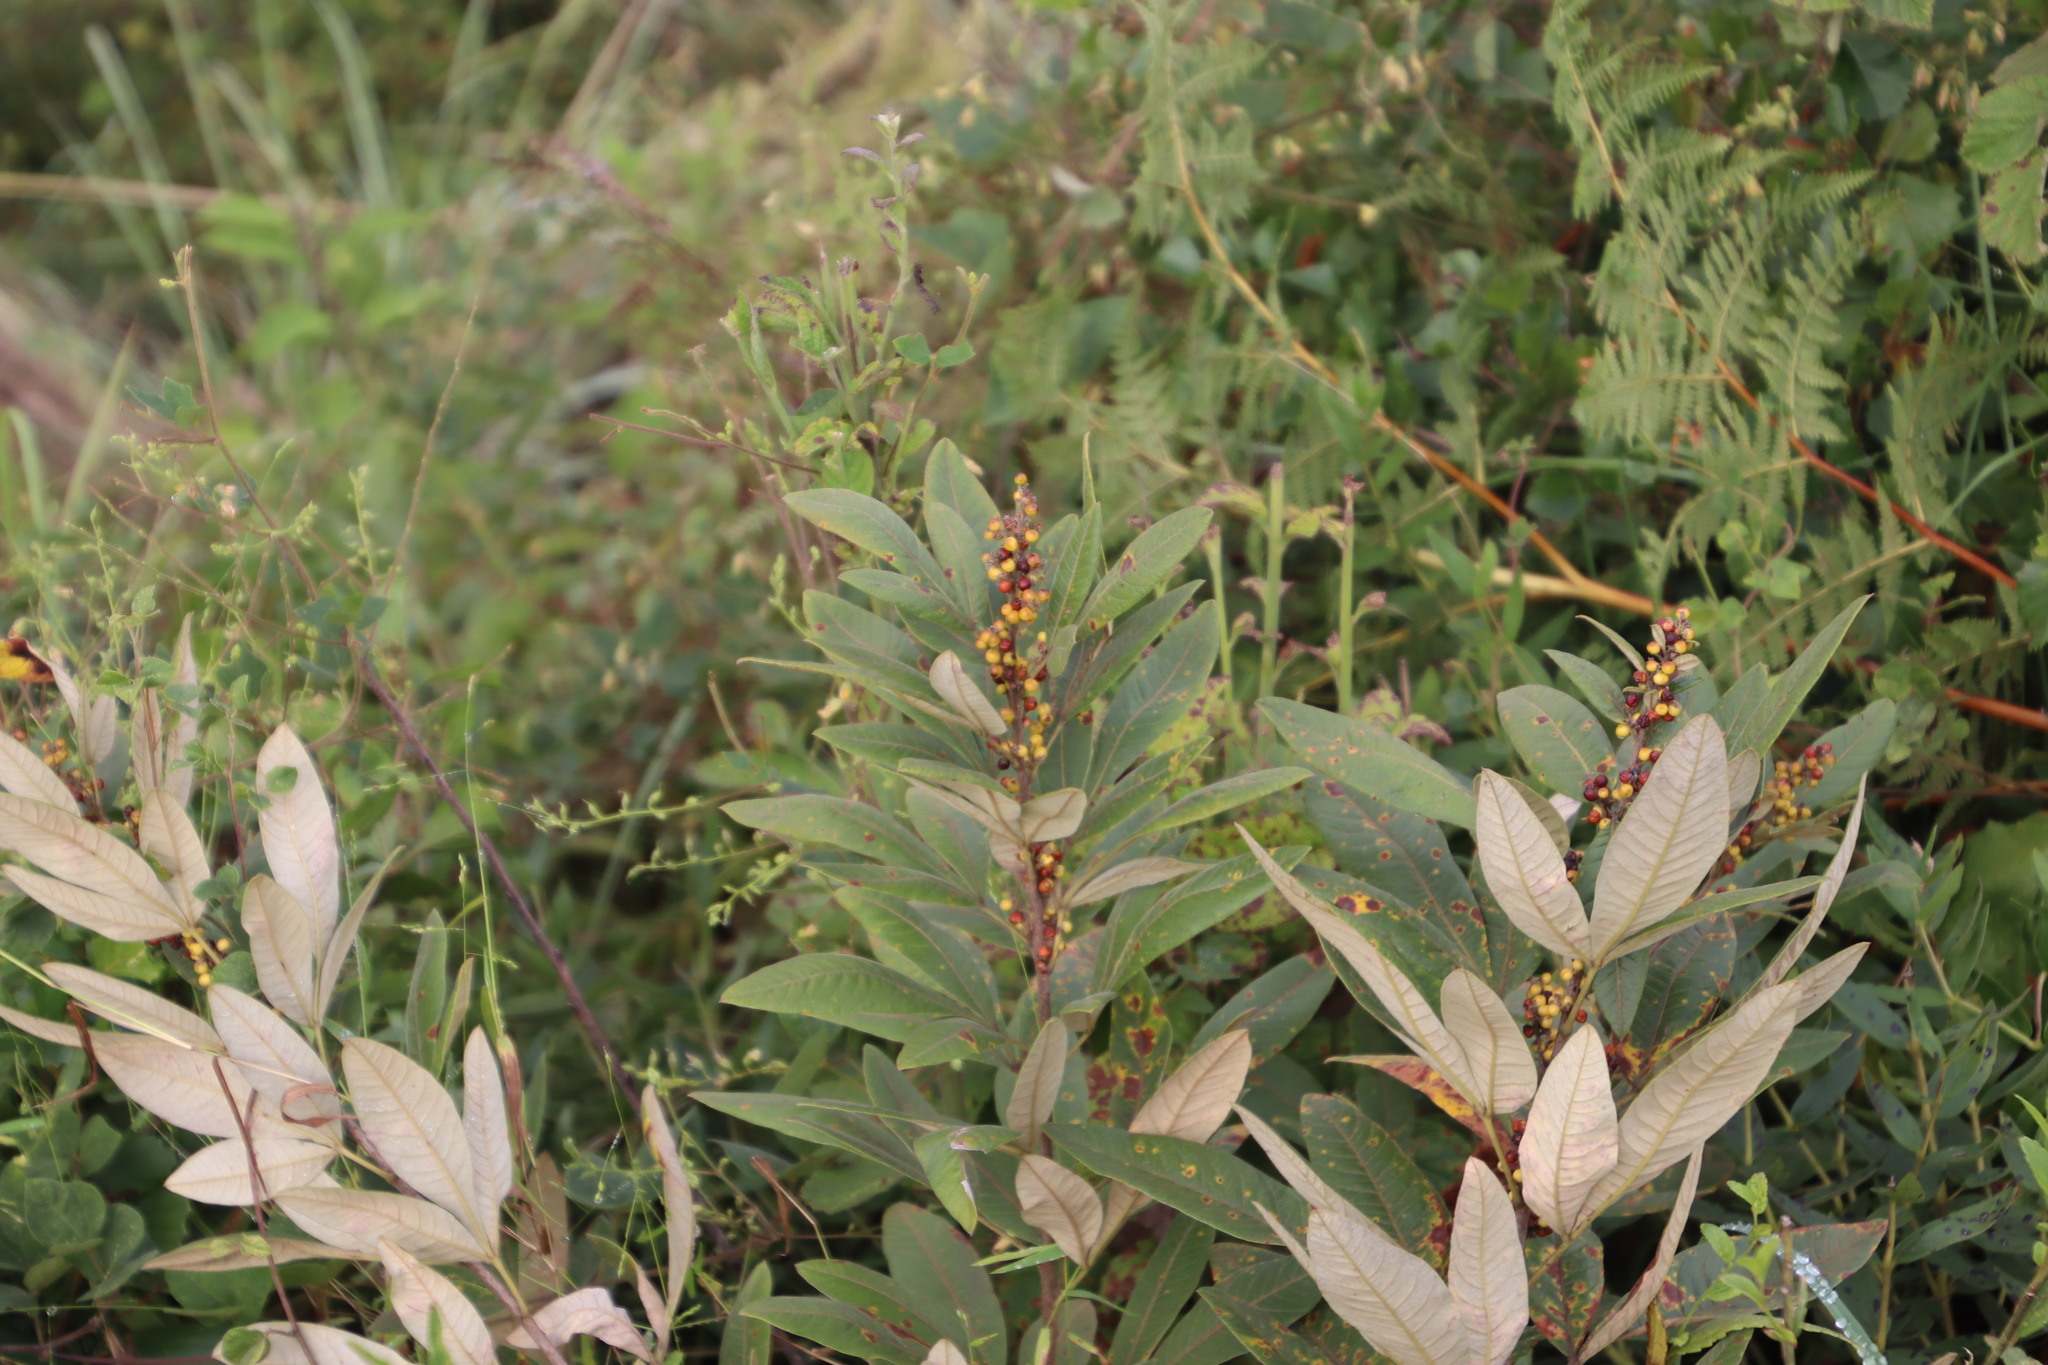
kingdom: Plantae
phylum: Tracheophyta
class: Magnoliopsida
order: Sapindales
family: Anacardiaceae
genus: Searsia
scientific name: Searsia discolor
